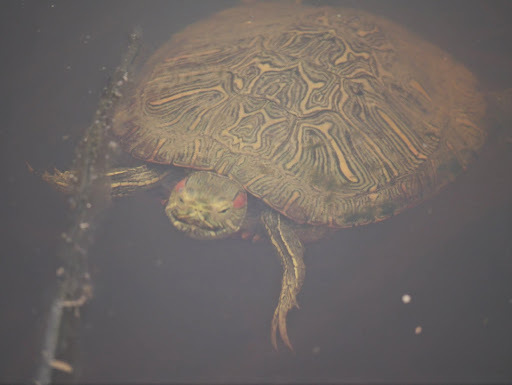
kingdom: Animalia
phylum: Chordata
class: Testudines
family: Emydidae
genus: Trachemys
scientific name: Trachemys scripta
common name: Slider
